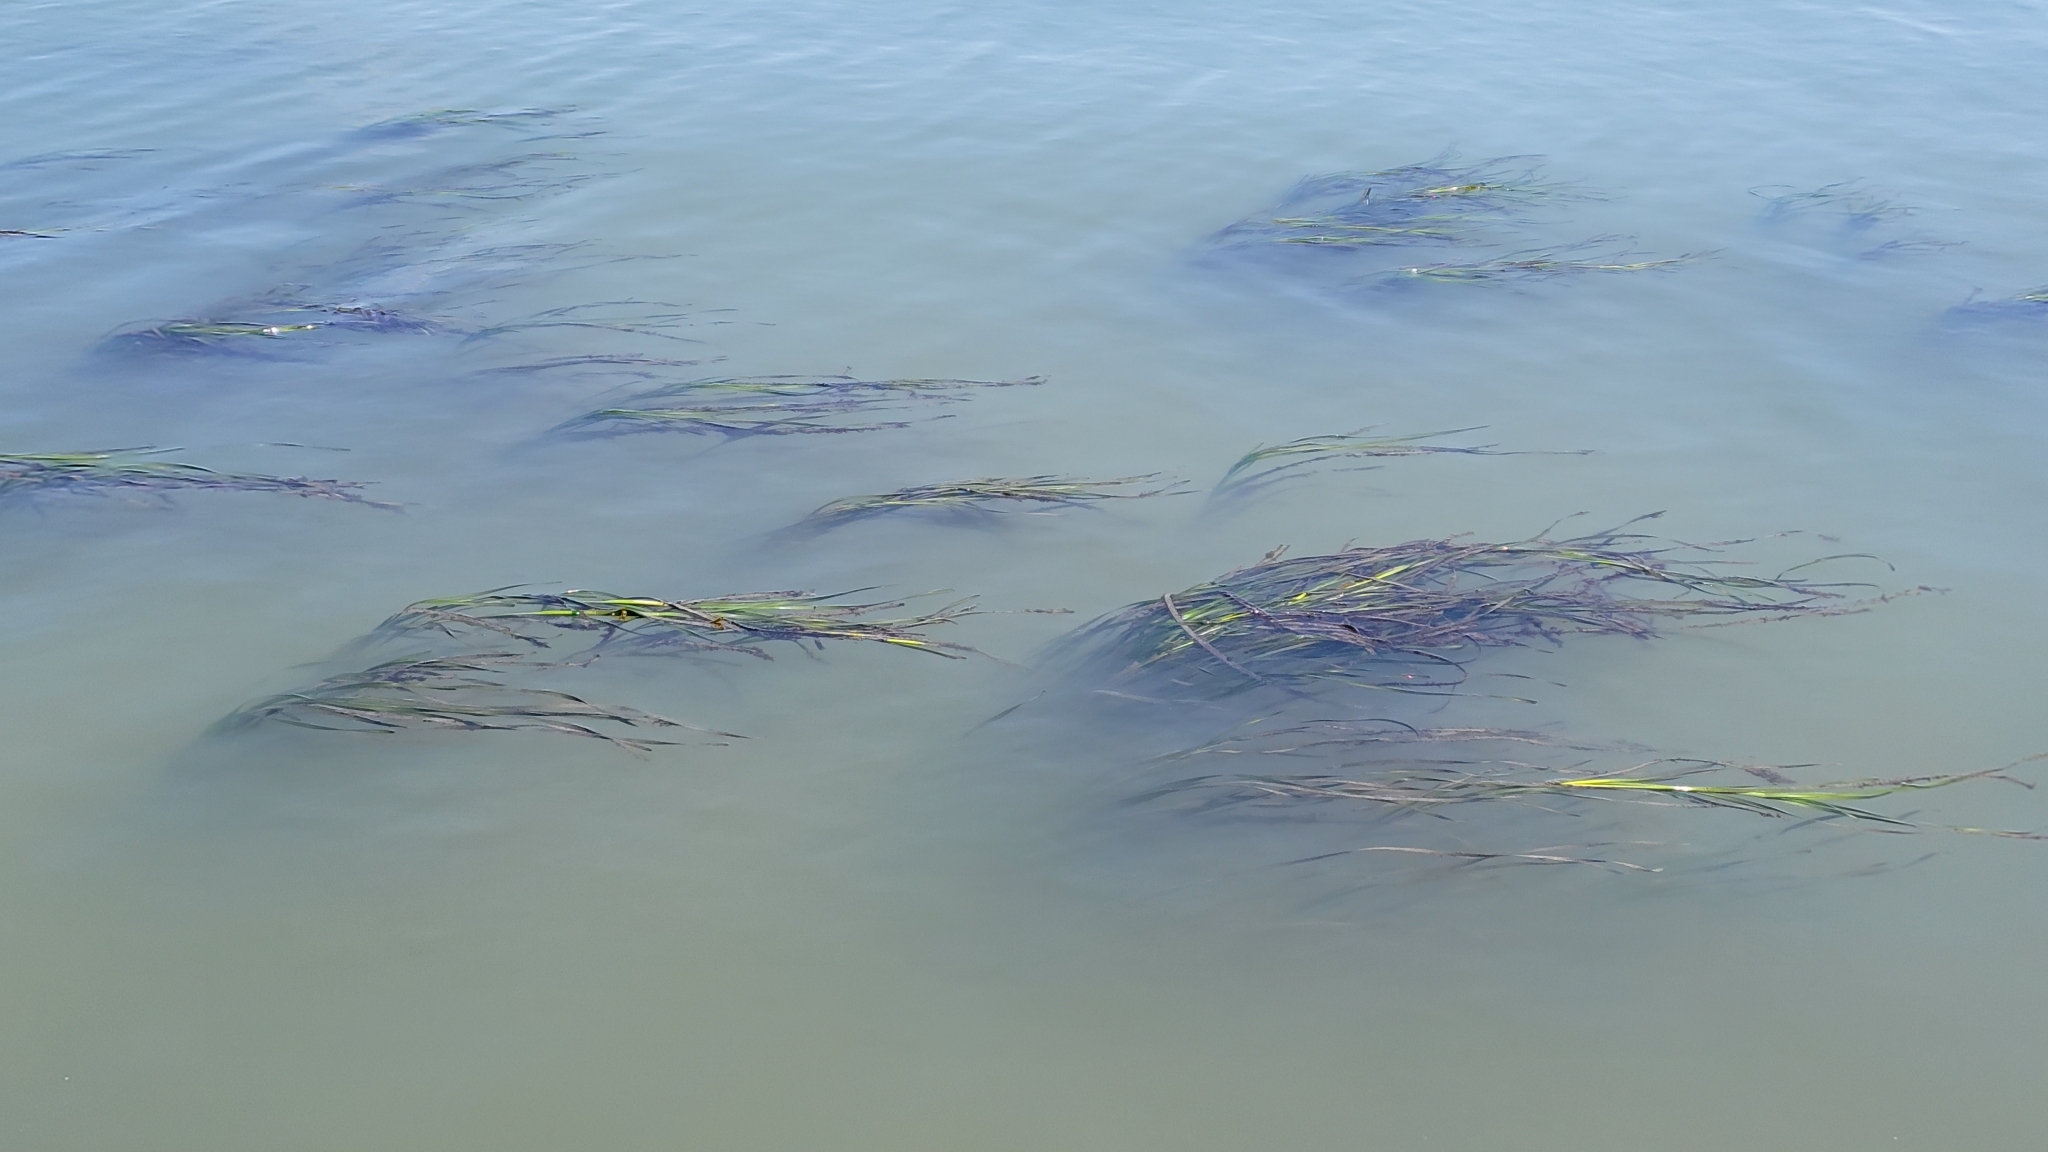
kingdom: Plantae
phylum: Tracheophyta
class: Liliopsida
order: Alismatales
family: Zosteraceae
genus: Zostera
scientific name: Zostera marina
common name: Eelgrass
